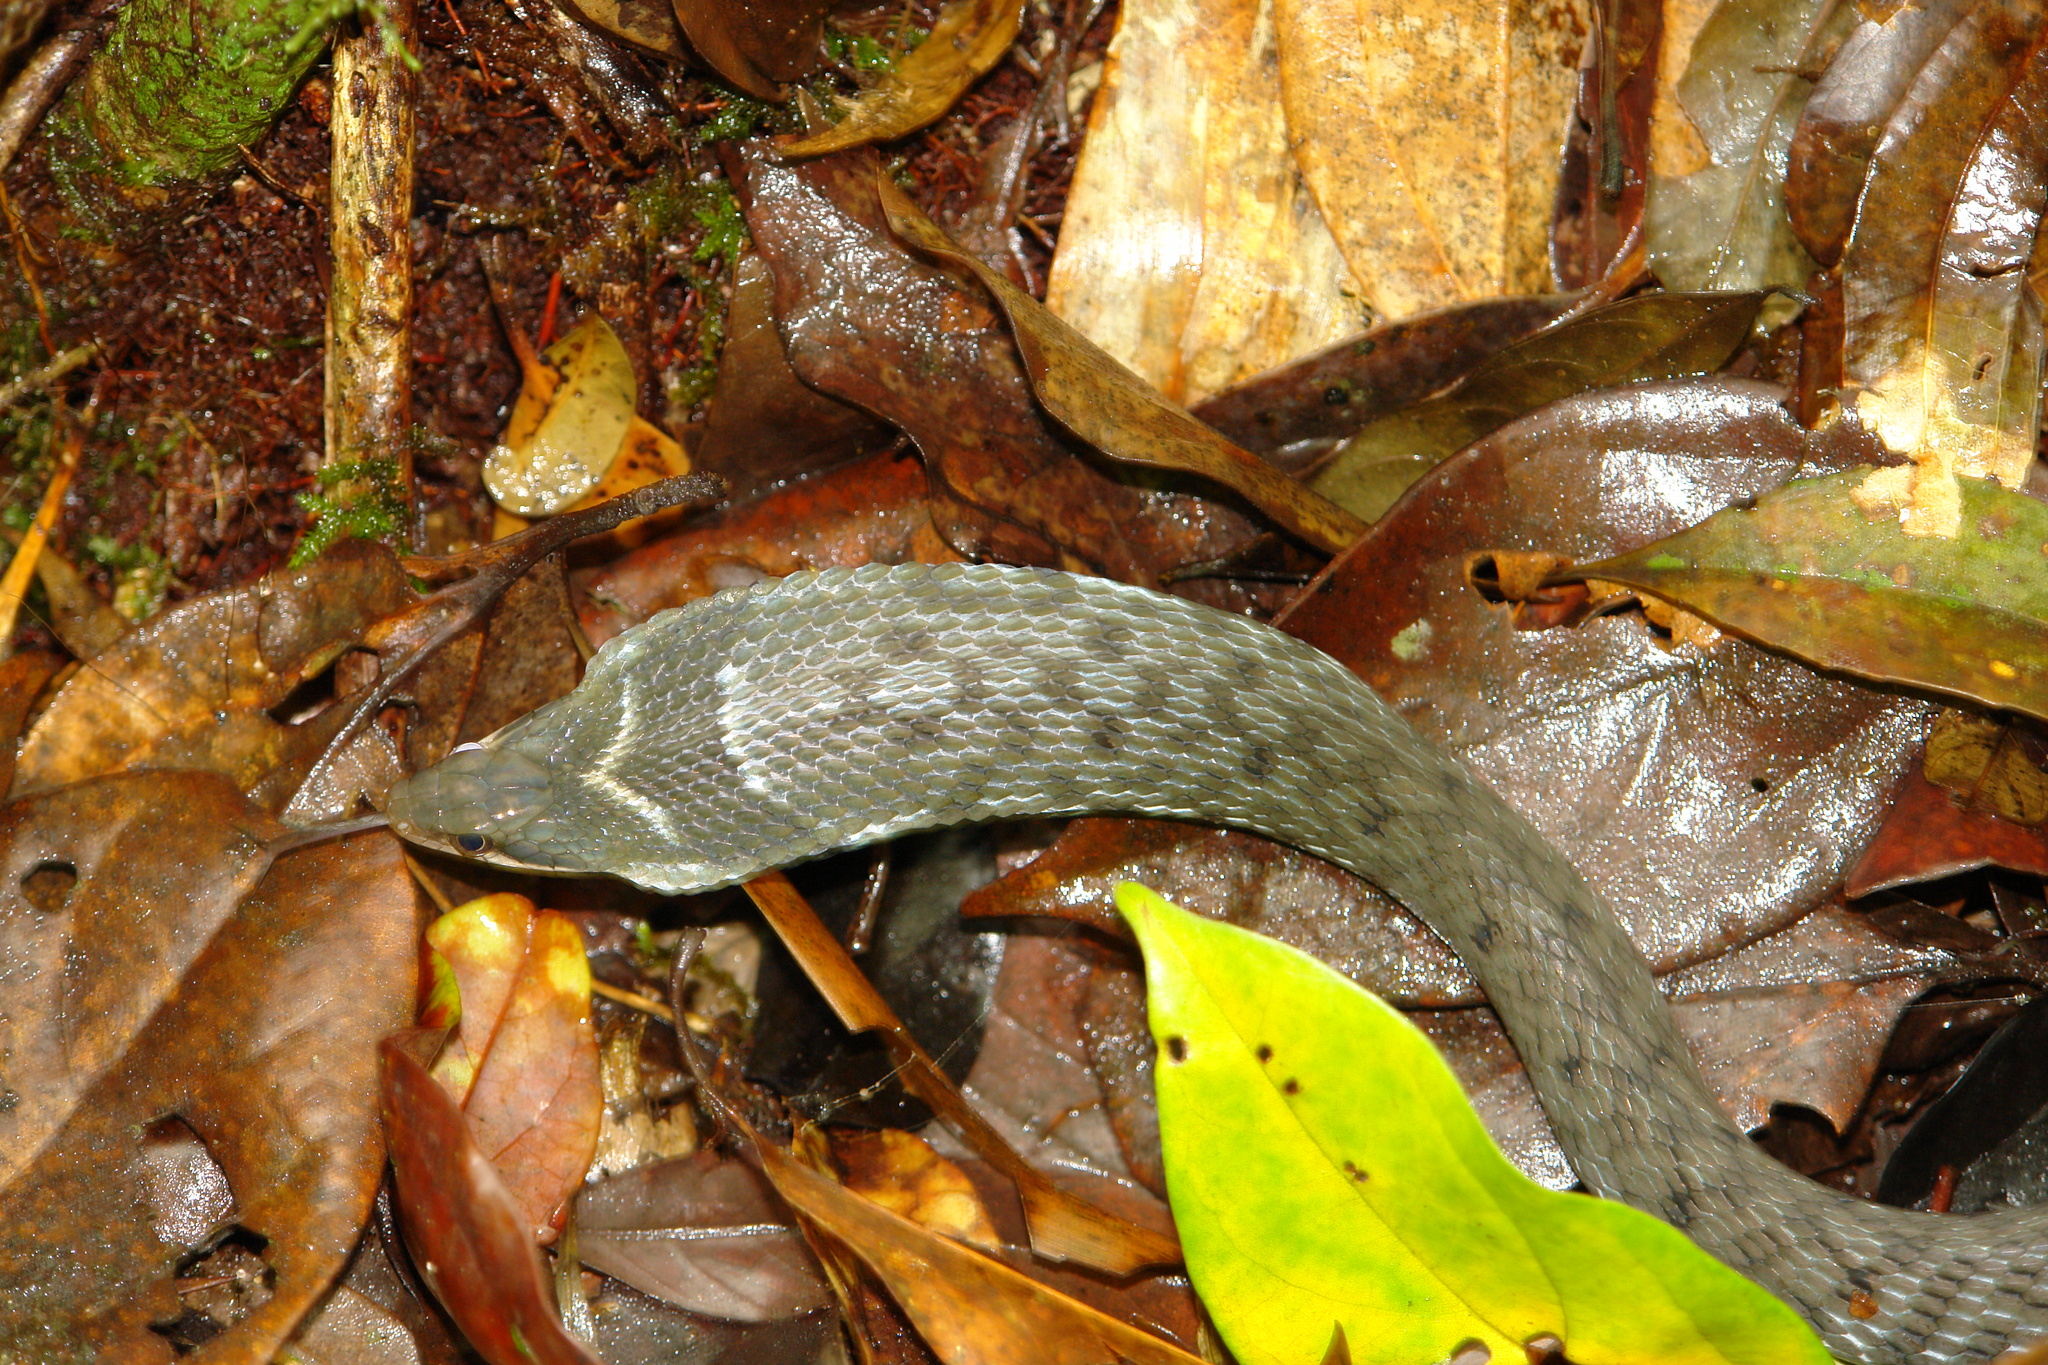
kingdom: Animalia
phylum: Chordata
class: Squamata
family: Colubridae
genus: Pseudoxenodon
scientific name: Pseudoxenodon macrops
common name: Big-eyed mountain keelback
